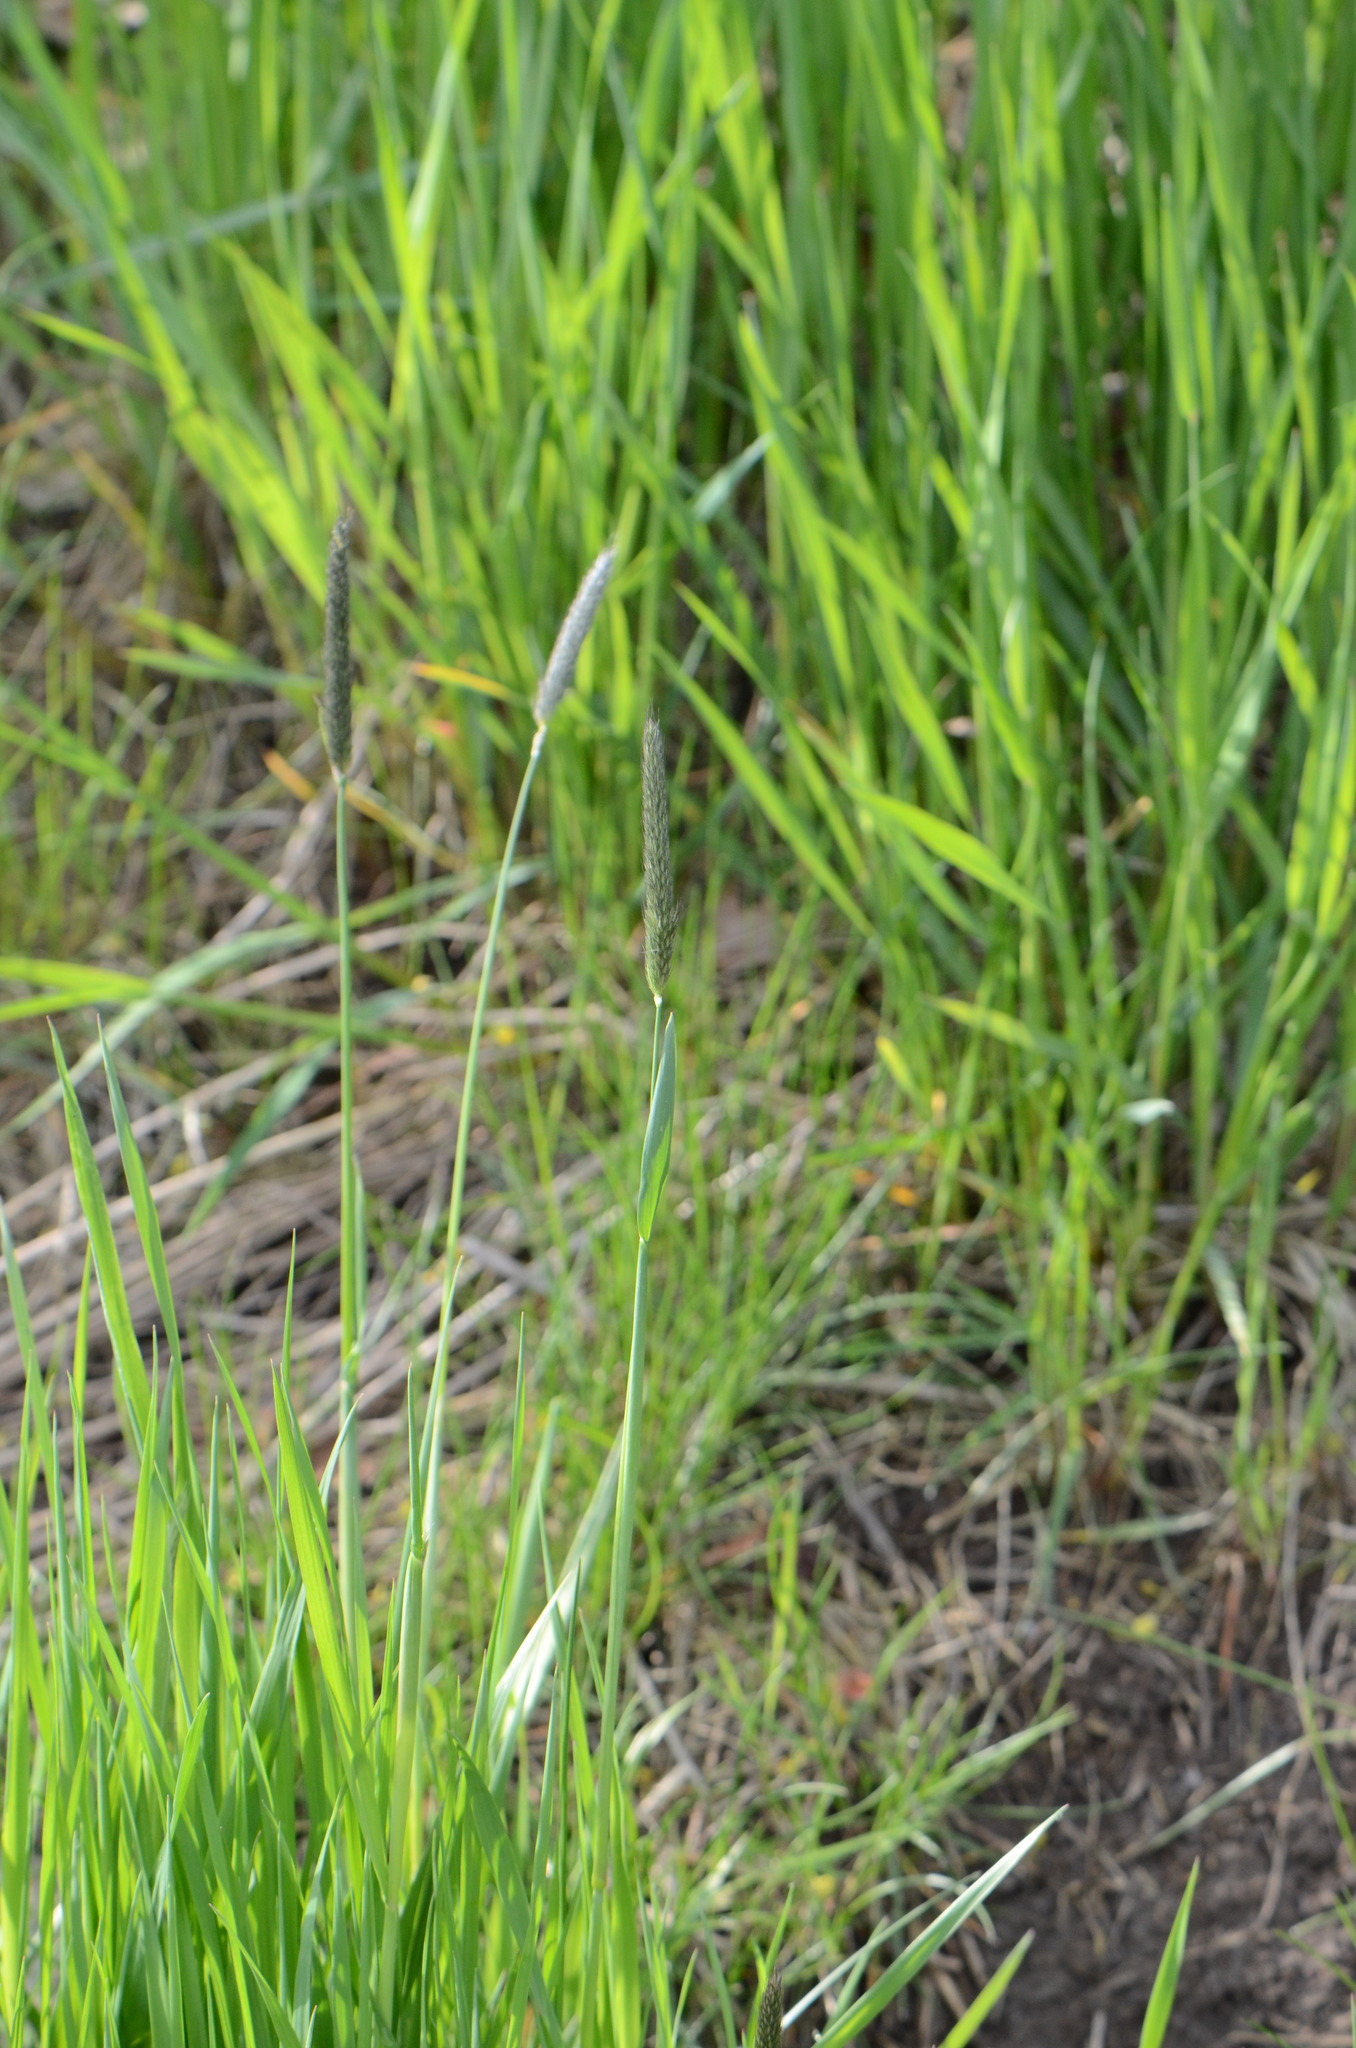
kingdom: Plantae
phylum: Tracheophyta
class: Liliopsida
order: Poales
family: Poaceae
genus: Alopecurus
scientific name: Alopecurus pratensis
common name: Meadow foxtail
